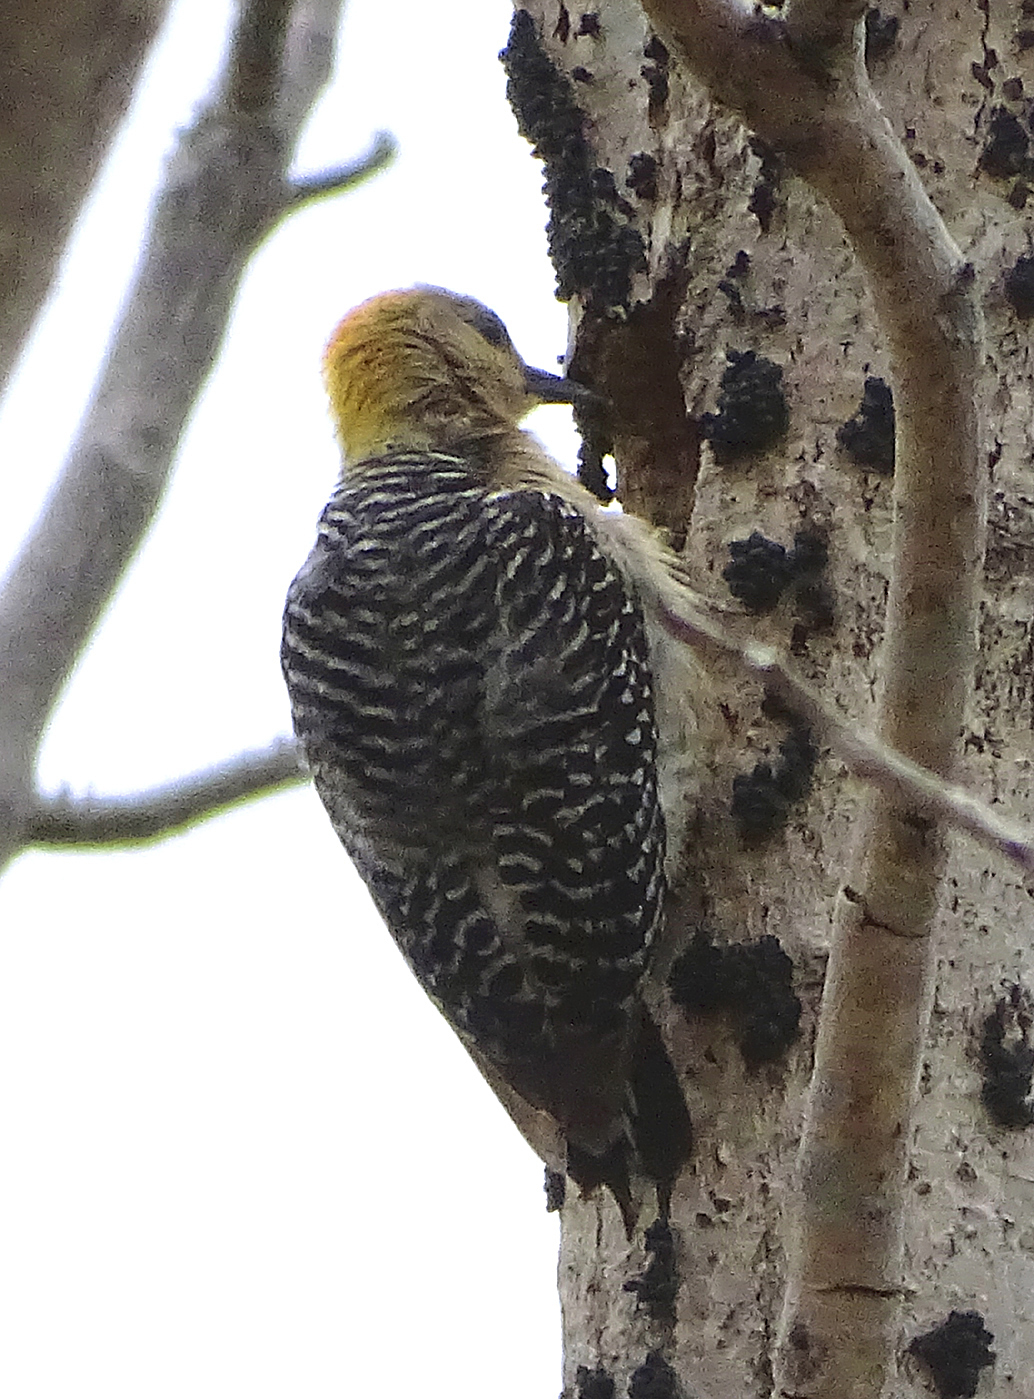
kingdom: Animalia
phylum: Chordata
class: Aves
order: Piciformes
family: Picidae
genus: Melanerpes
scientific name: Melanerpes hoffmannii
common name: Hoffmann's woodpecker
